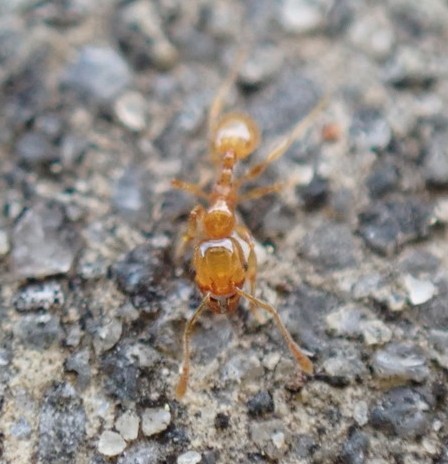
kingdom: Animalia
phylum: Arthropoda
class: Insecta
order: Hymenoptera
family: Formicidae
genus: Pheidole
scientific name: Pheidole tysoni
